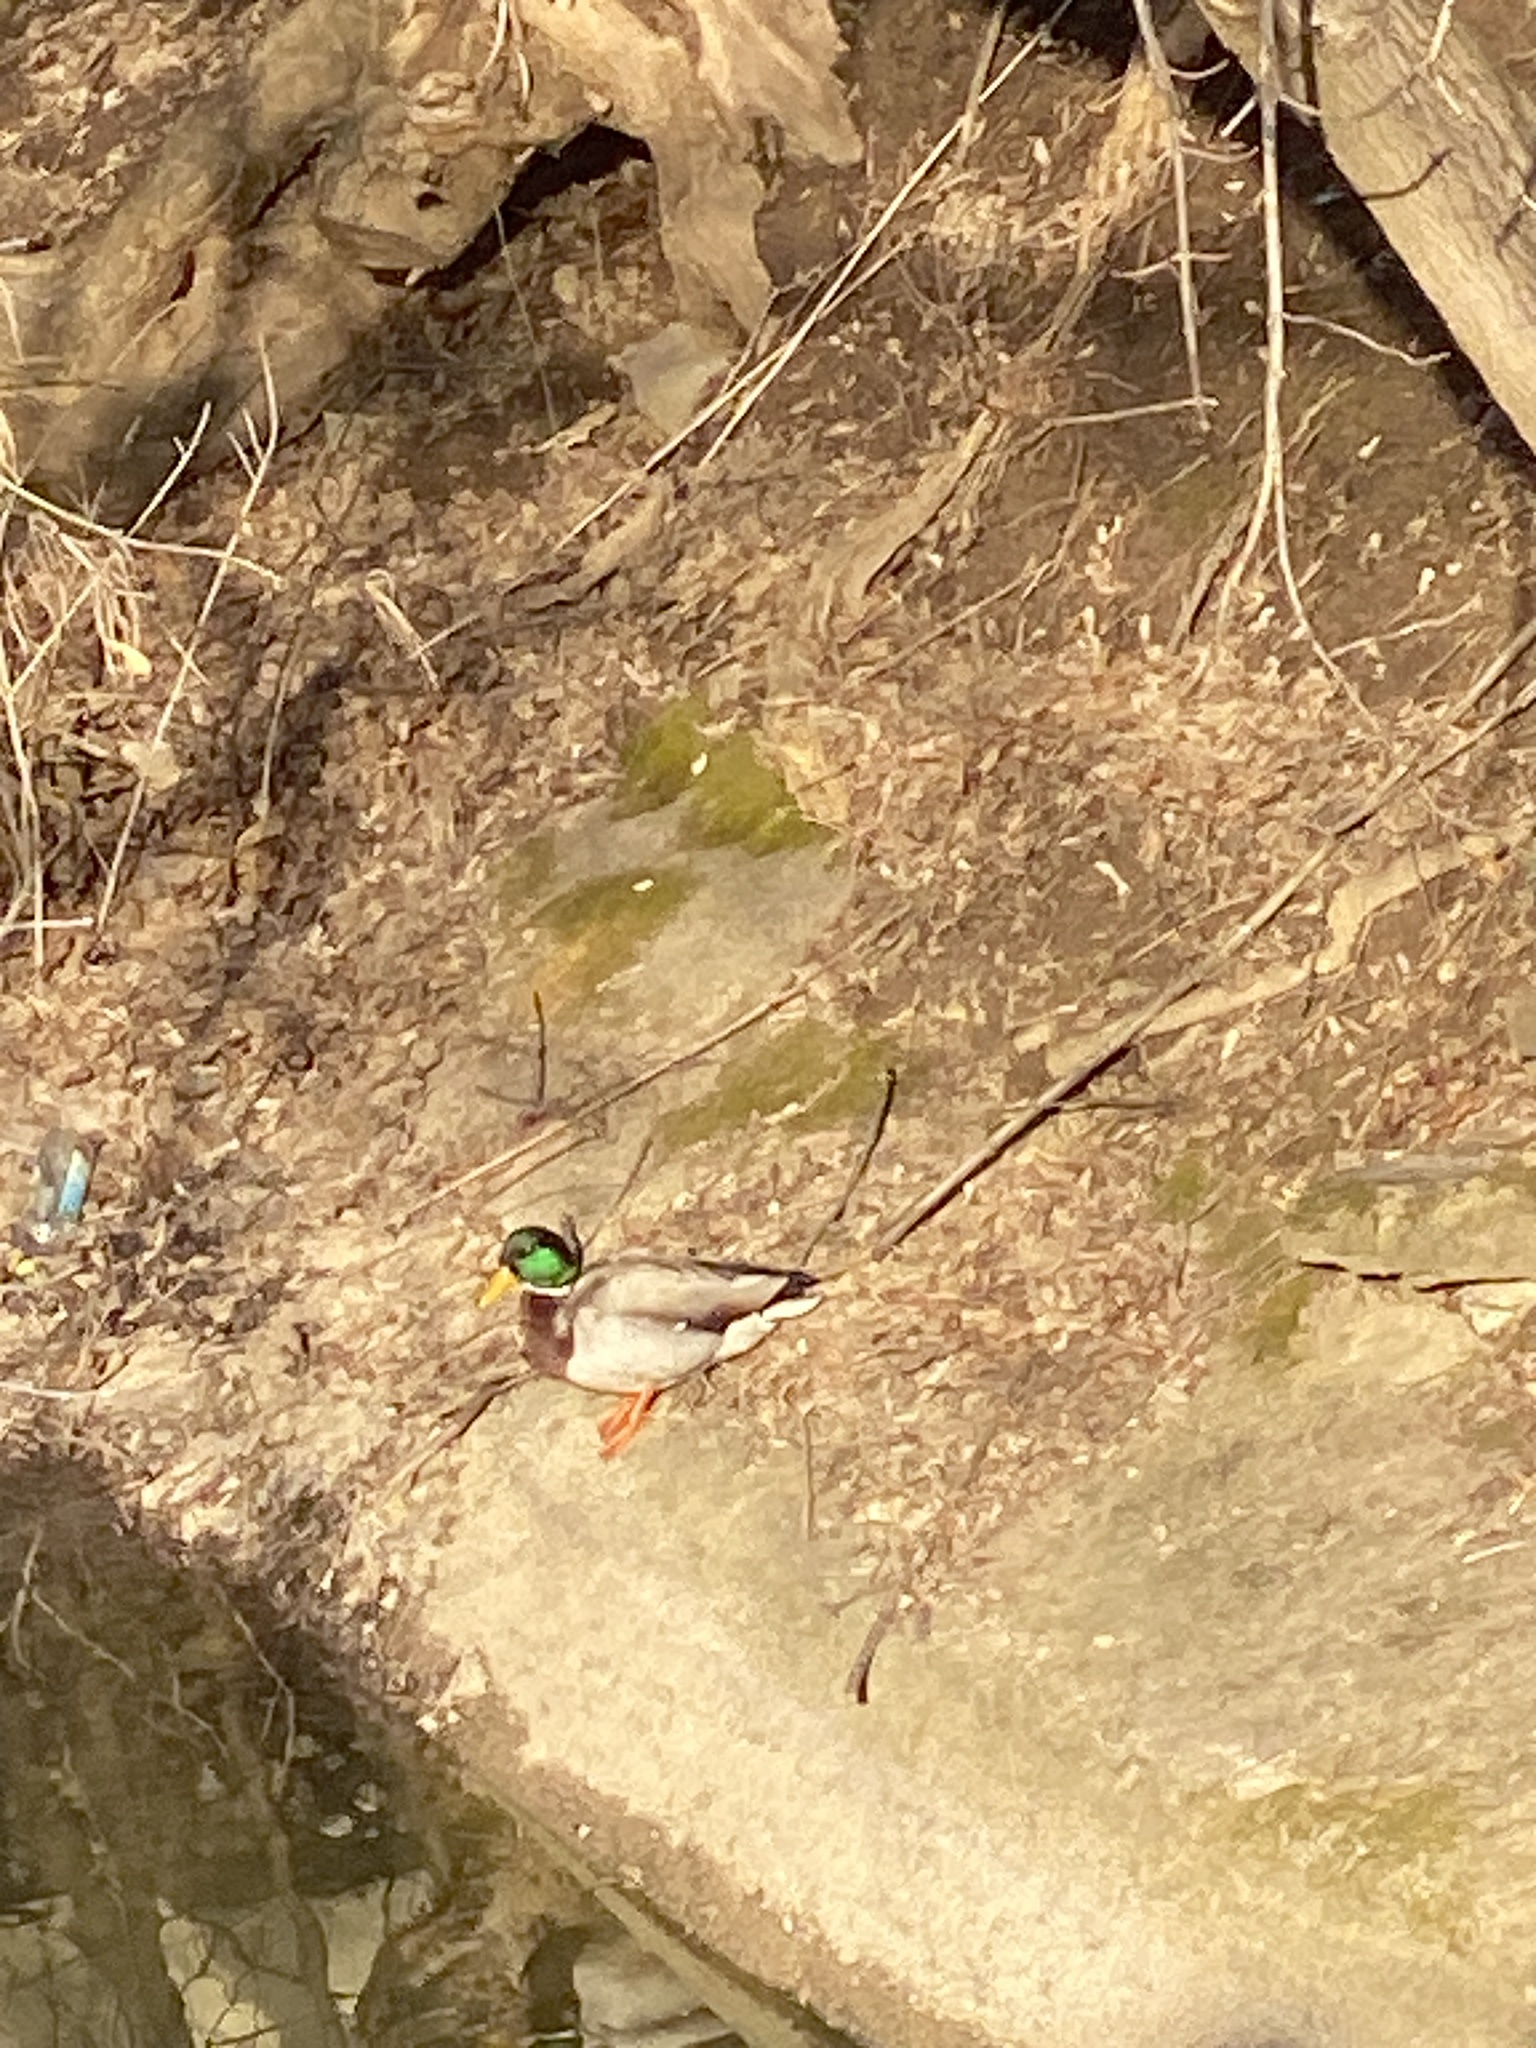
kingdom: Animalia
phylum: Chordata
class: Aves
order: Anseriformes
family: Anatidae
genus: Anas
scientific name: Anas platyrhynchos
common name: Mallard
